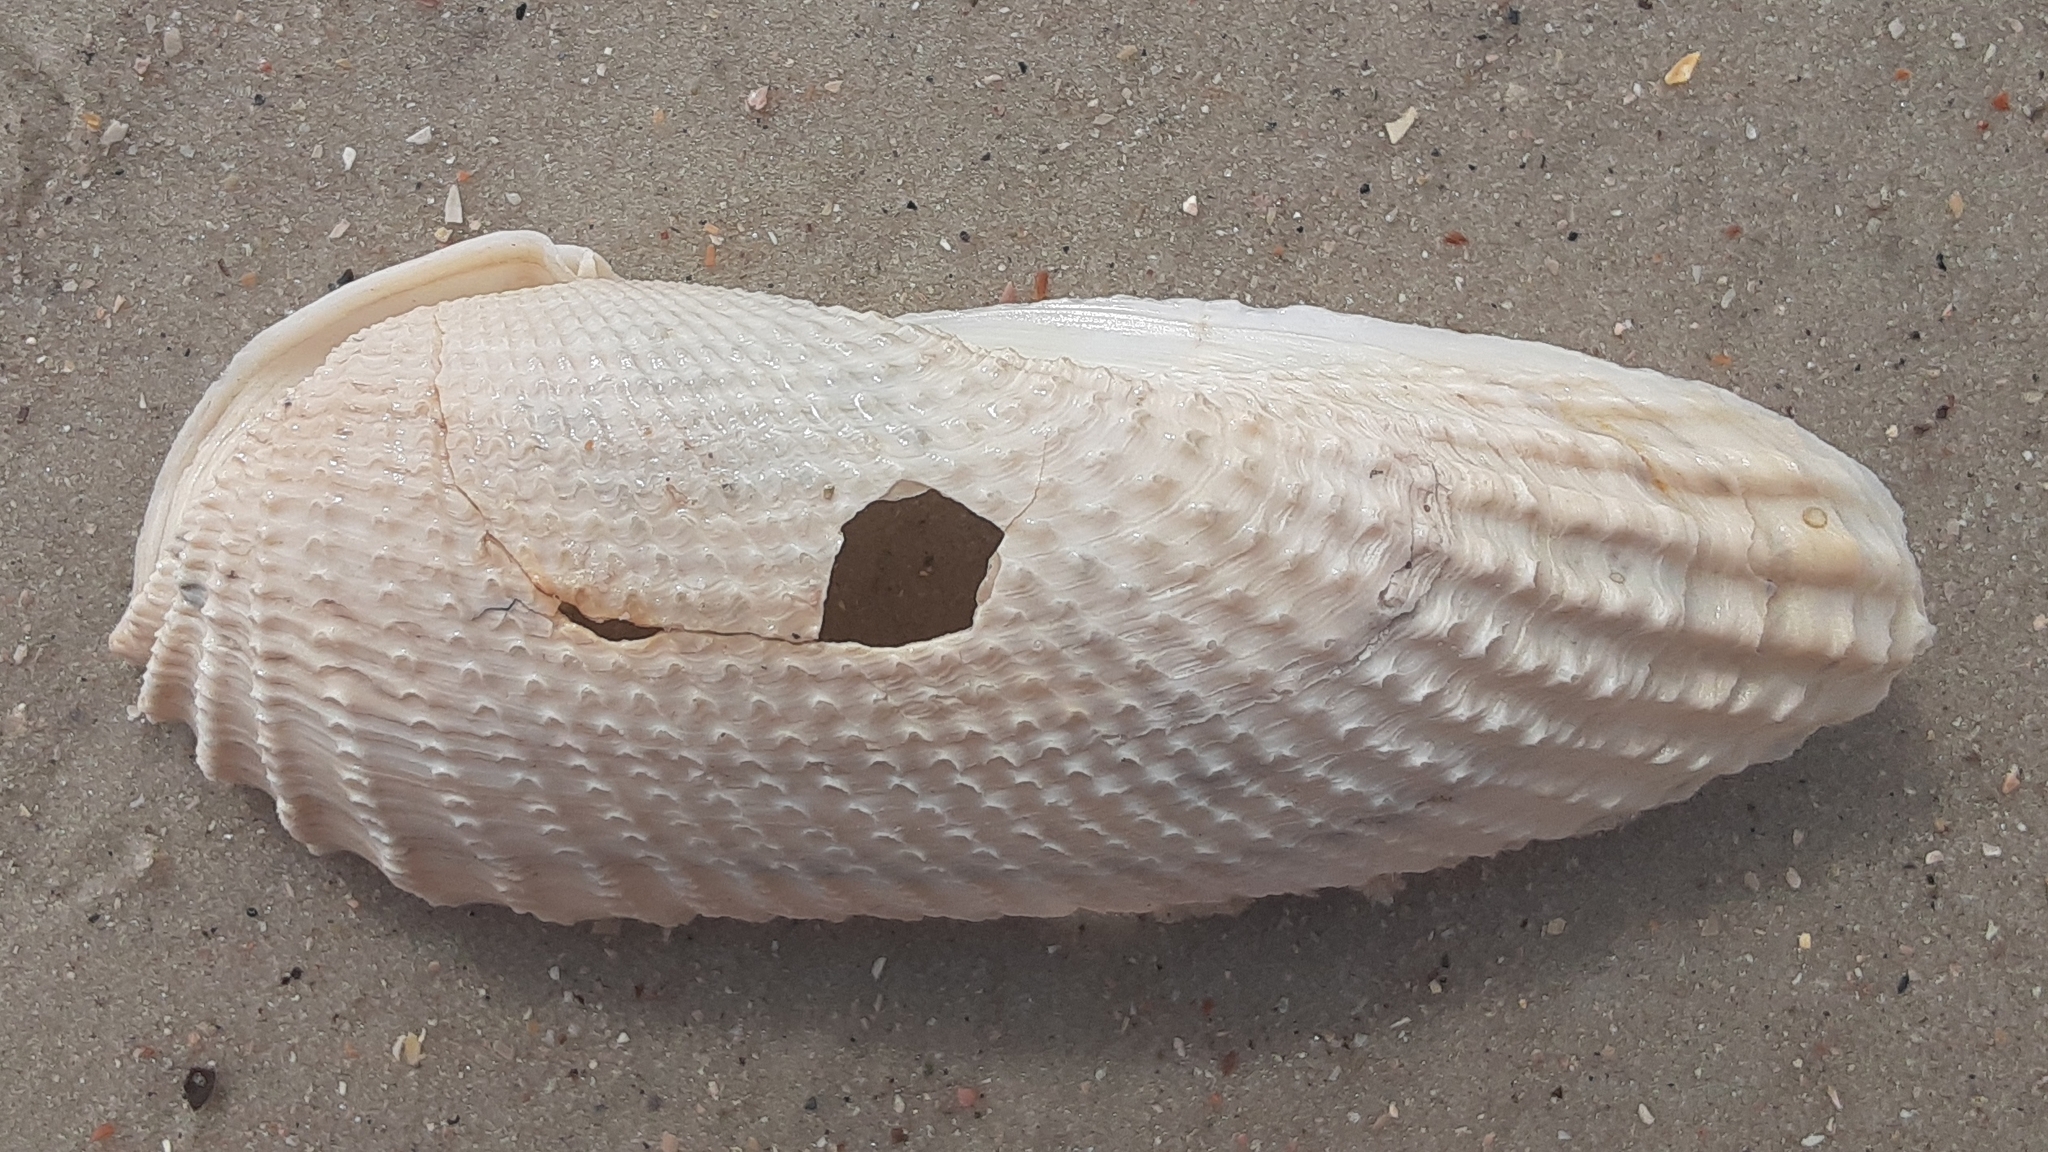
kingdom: Animalia
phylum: Mollusca
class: Bivalvia
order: Myida
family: Pholadidae
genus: Cyrtopleura
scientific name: Cyrtopleura costata
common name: Angel wing
